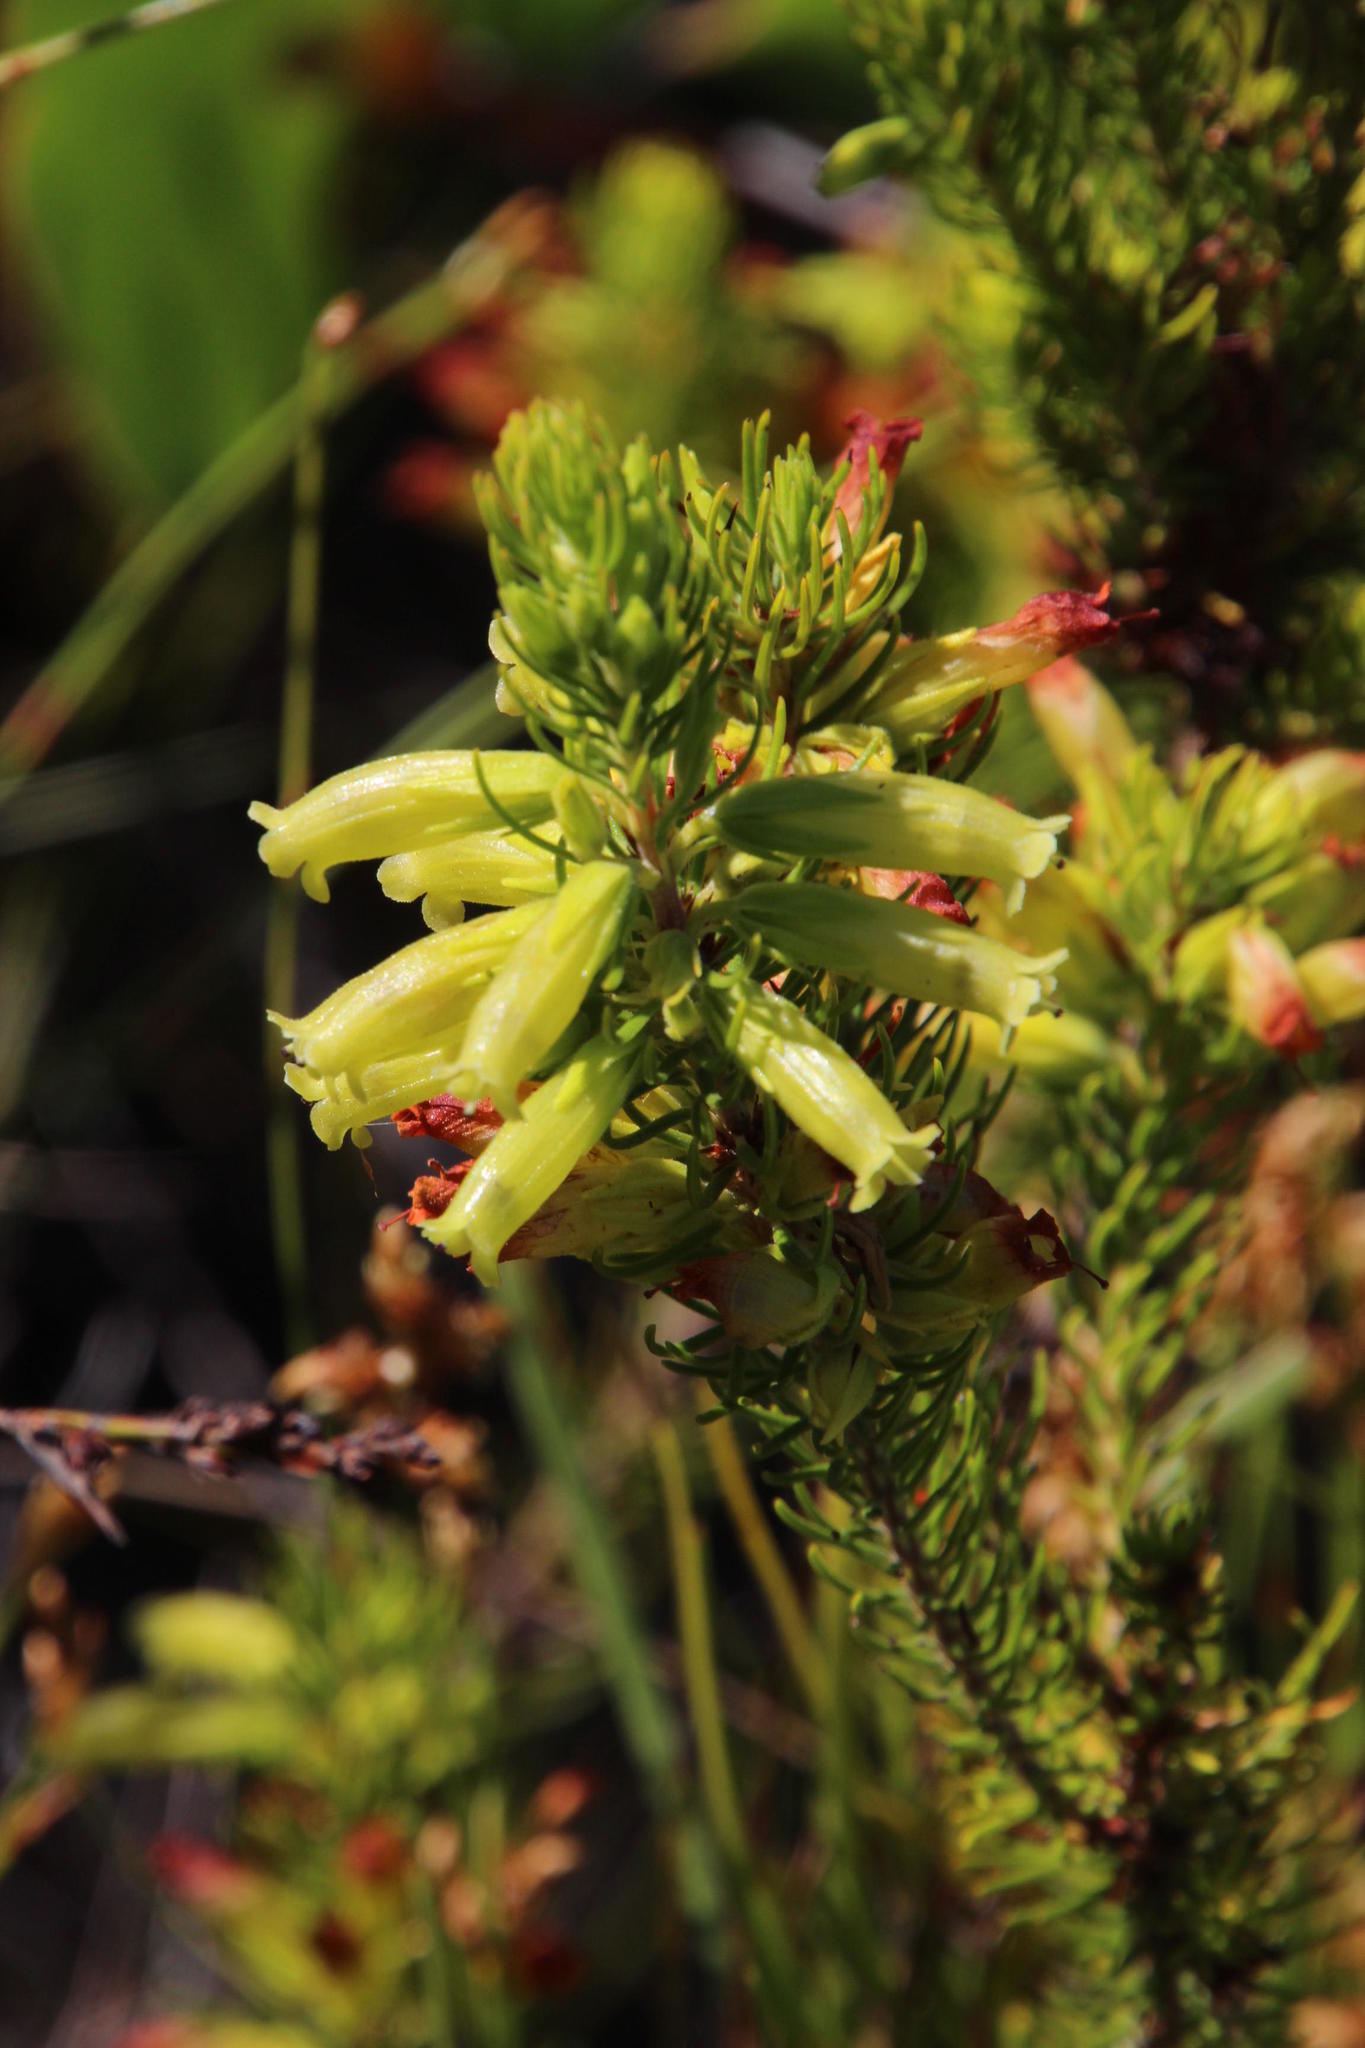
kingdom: Plantae
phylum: Tracheophyta
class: Magnoliopsida
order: Ericales
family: Ericaceae
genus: Erica
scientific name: Erica viscaria
